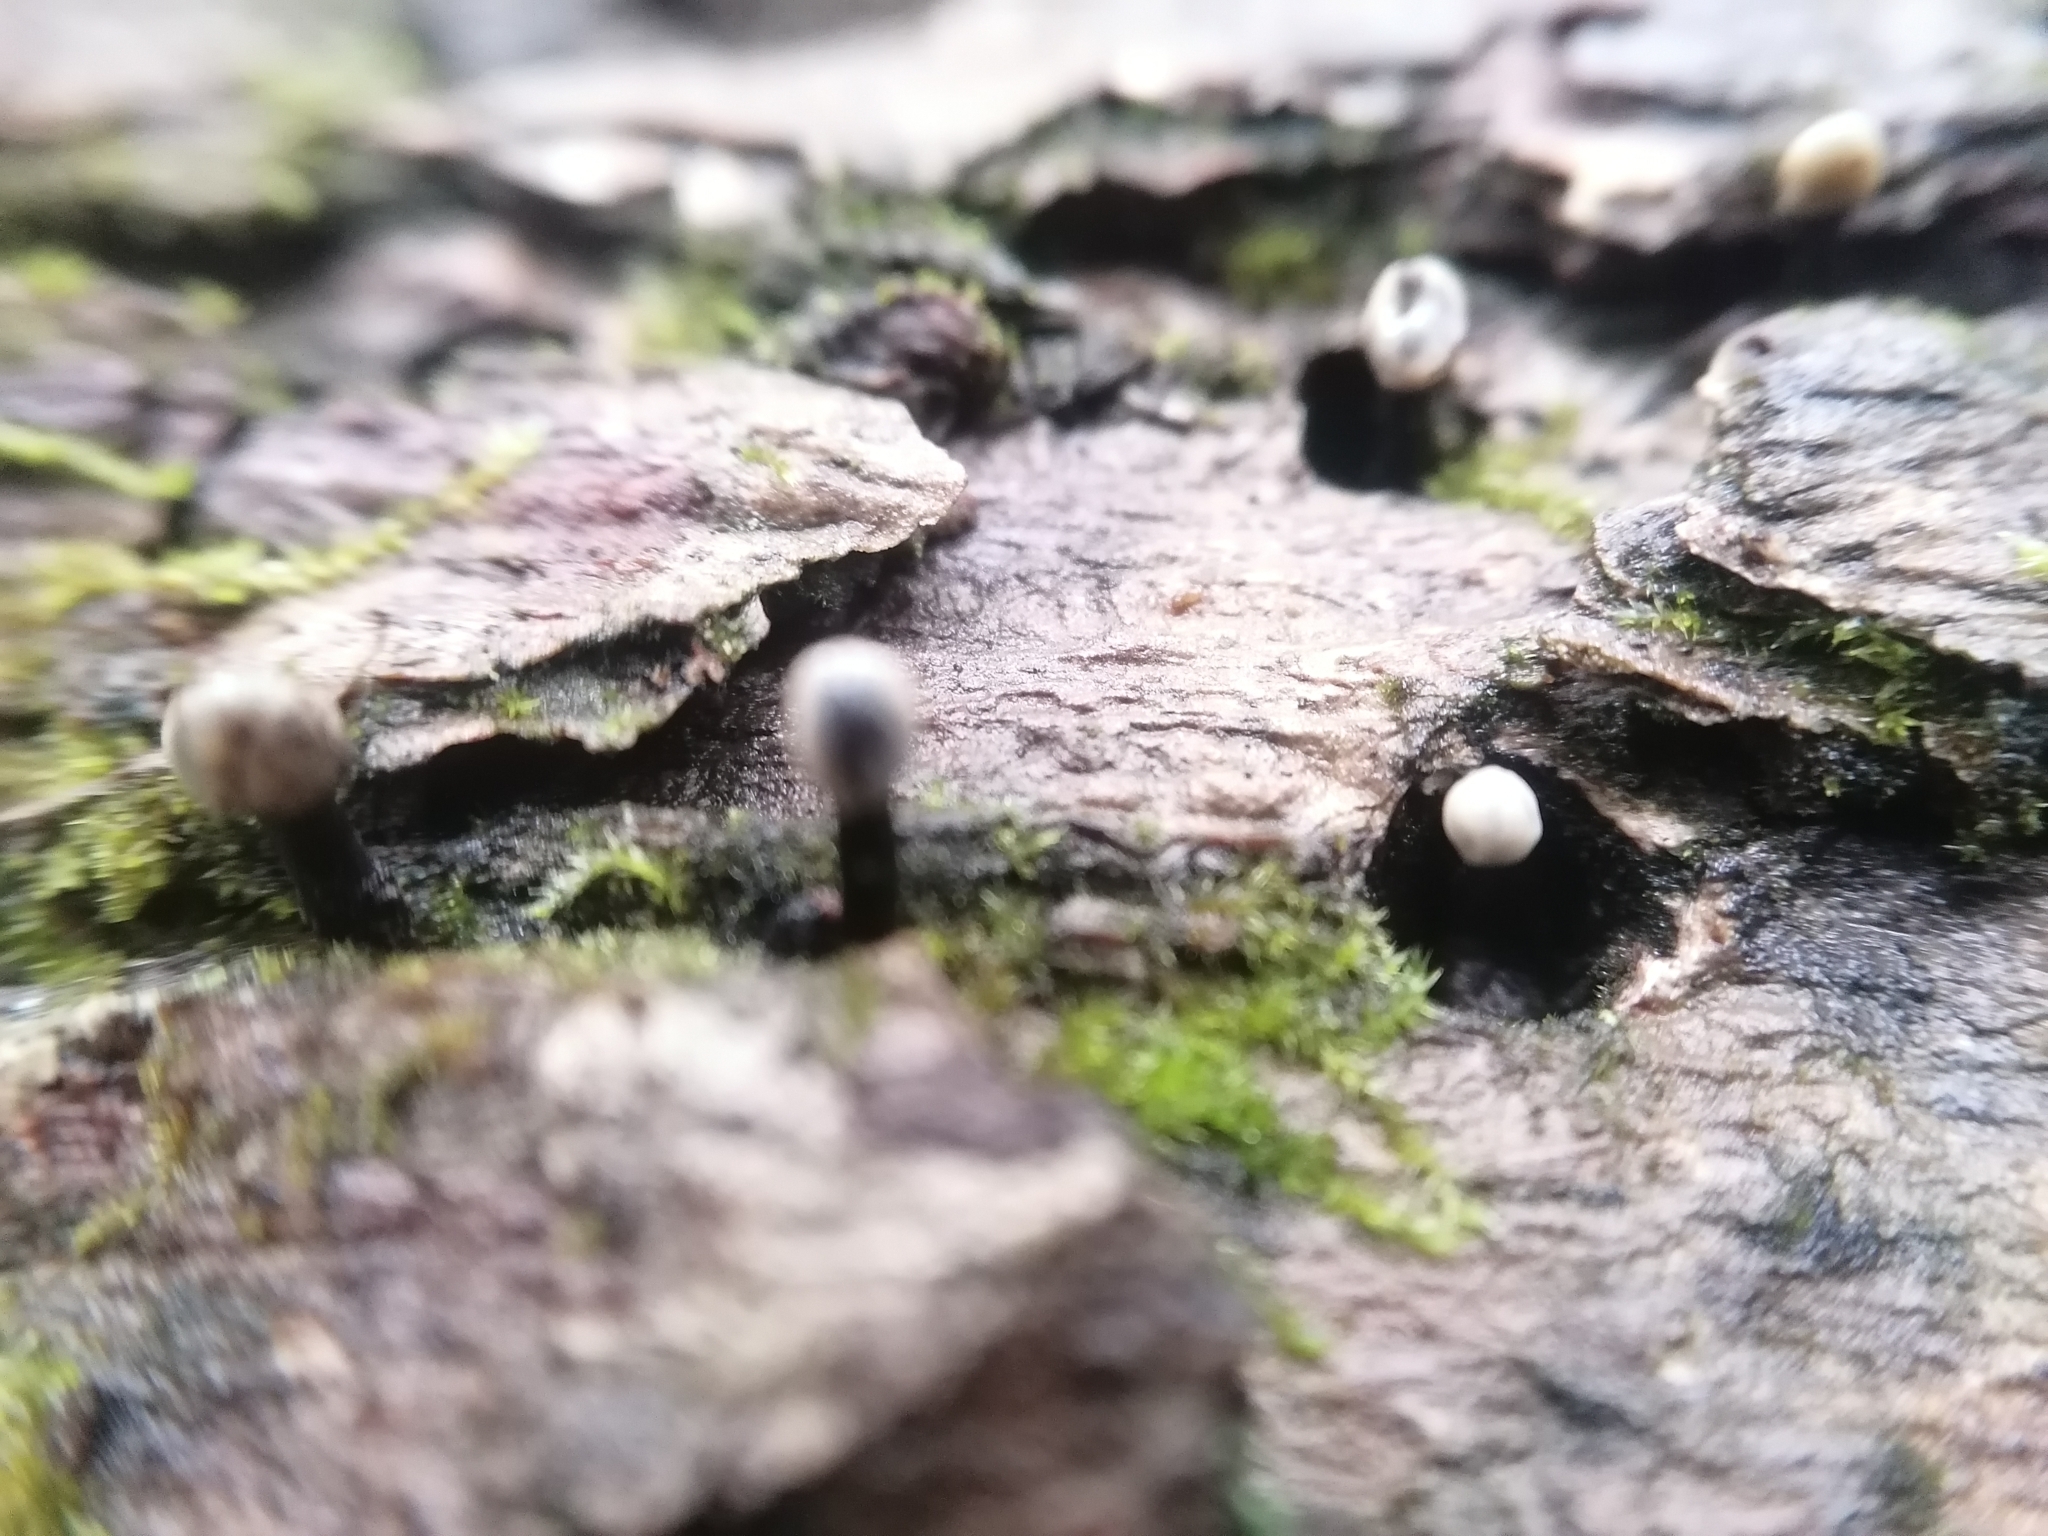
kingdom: Fungi
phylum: Ascomycota
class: Leotiomycetes
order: Helotiales
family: Bulgariaceae
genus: Holwaya
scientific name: Holwaya mucida
